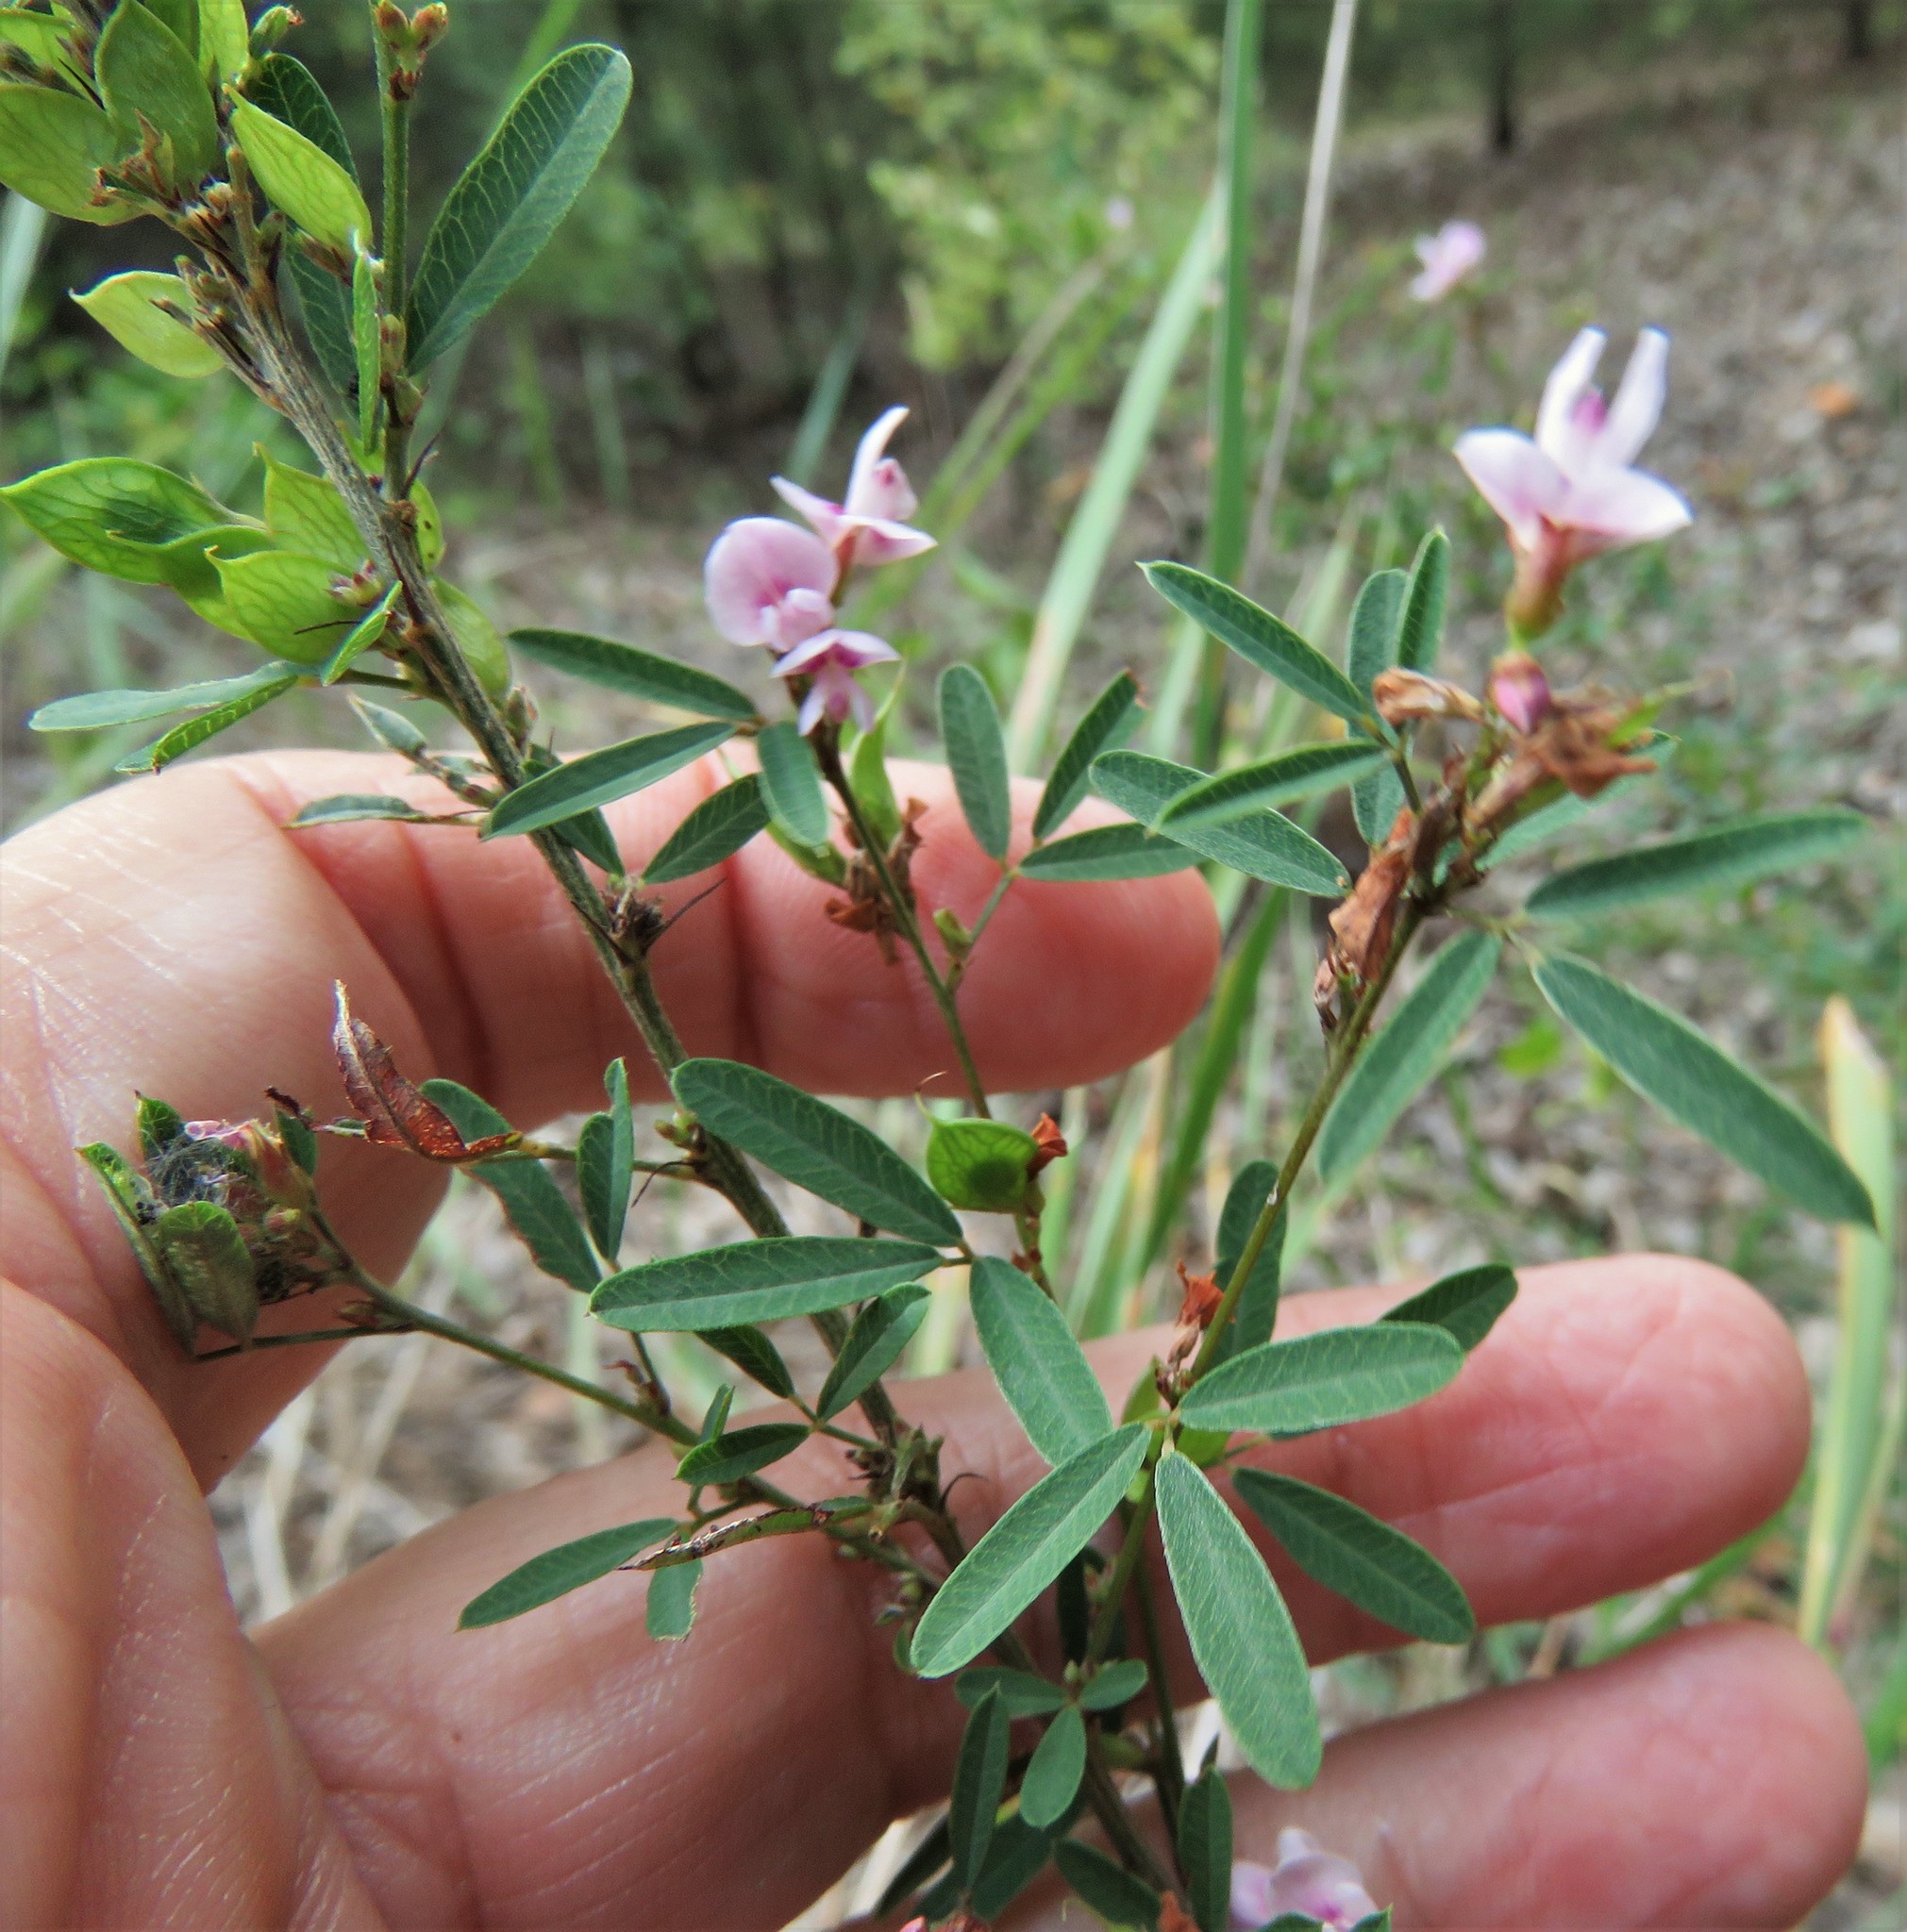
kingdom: Plantae
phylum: Tracheophyta
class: Magnoliopsida
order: Fabales
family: Fabaceae
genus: Lespedeza
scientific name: Lespedeza virginica
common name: Slender bush-clover
